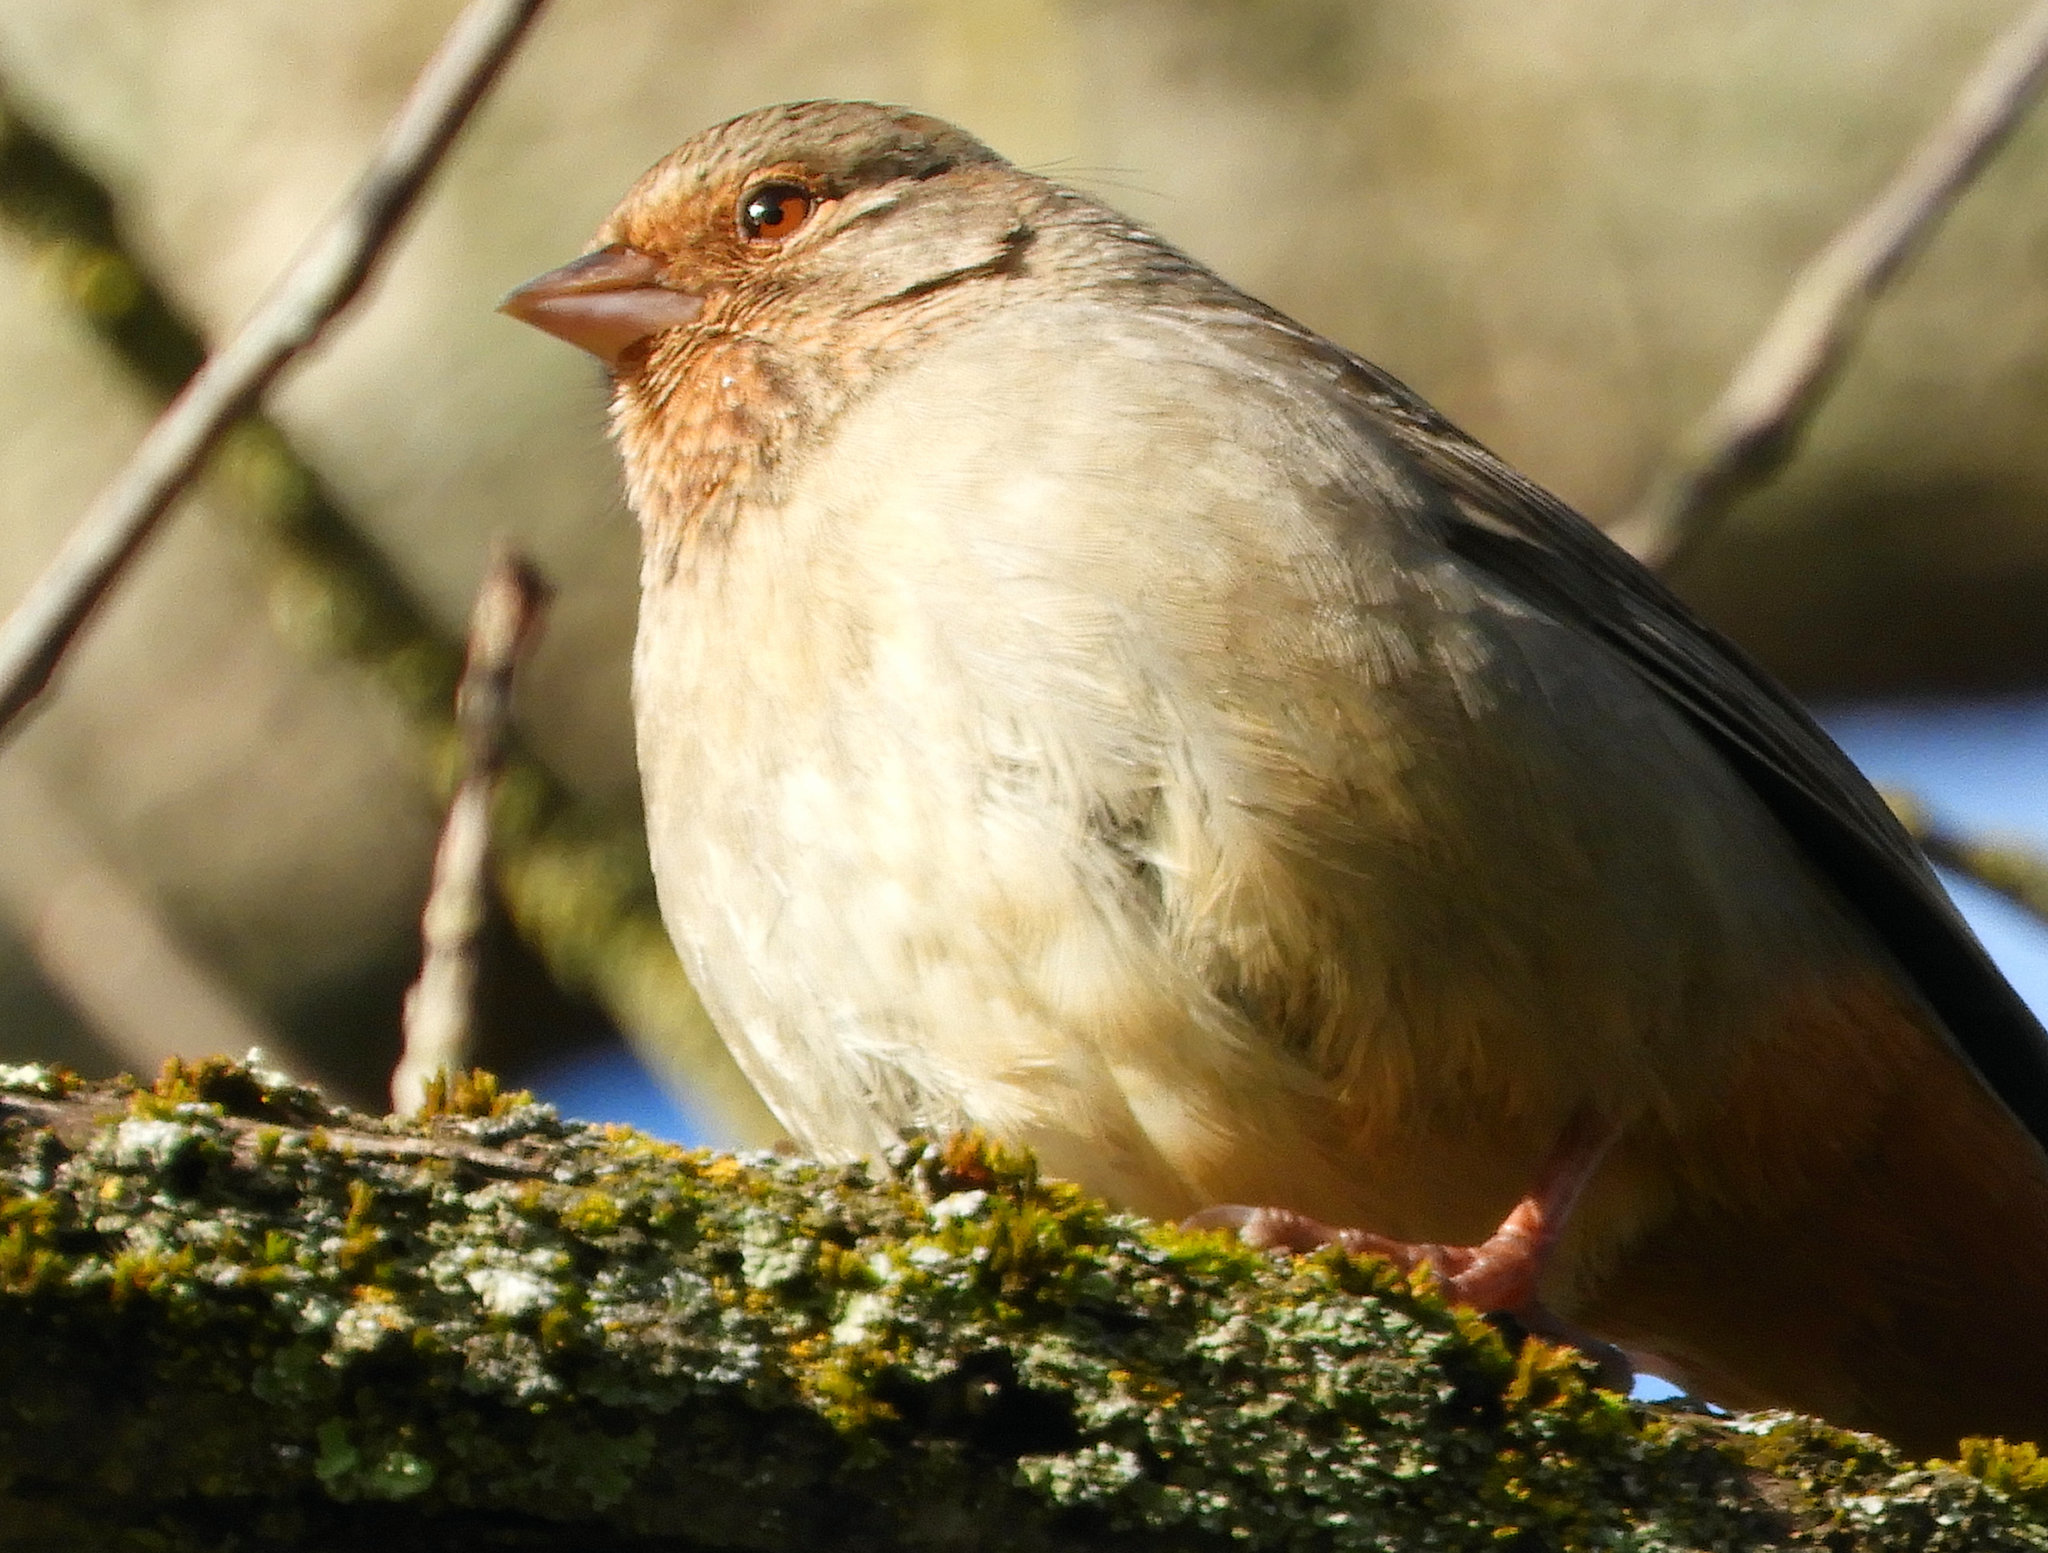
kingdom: Animalia
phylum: Chordata
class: Aves
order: Passeriformes
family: Passerellidae
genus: Melozone
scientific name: Melozone crissalis
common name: California towhee
